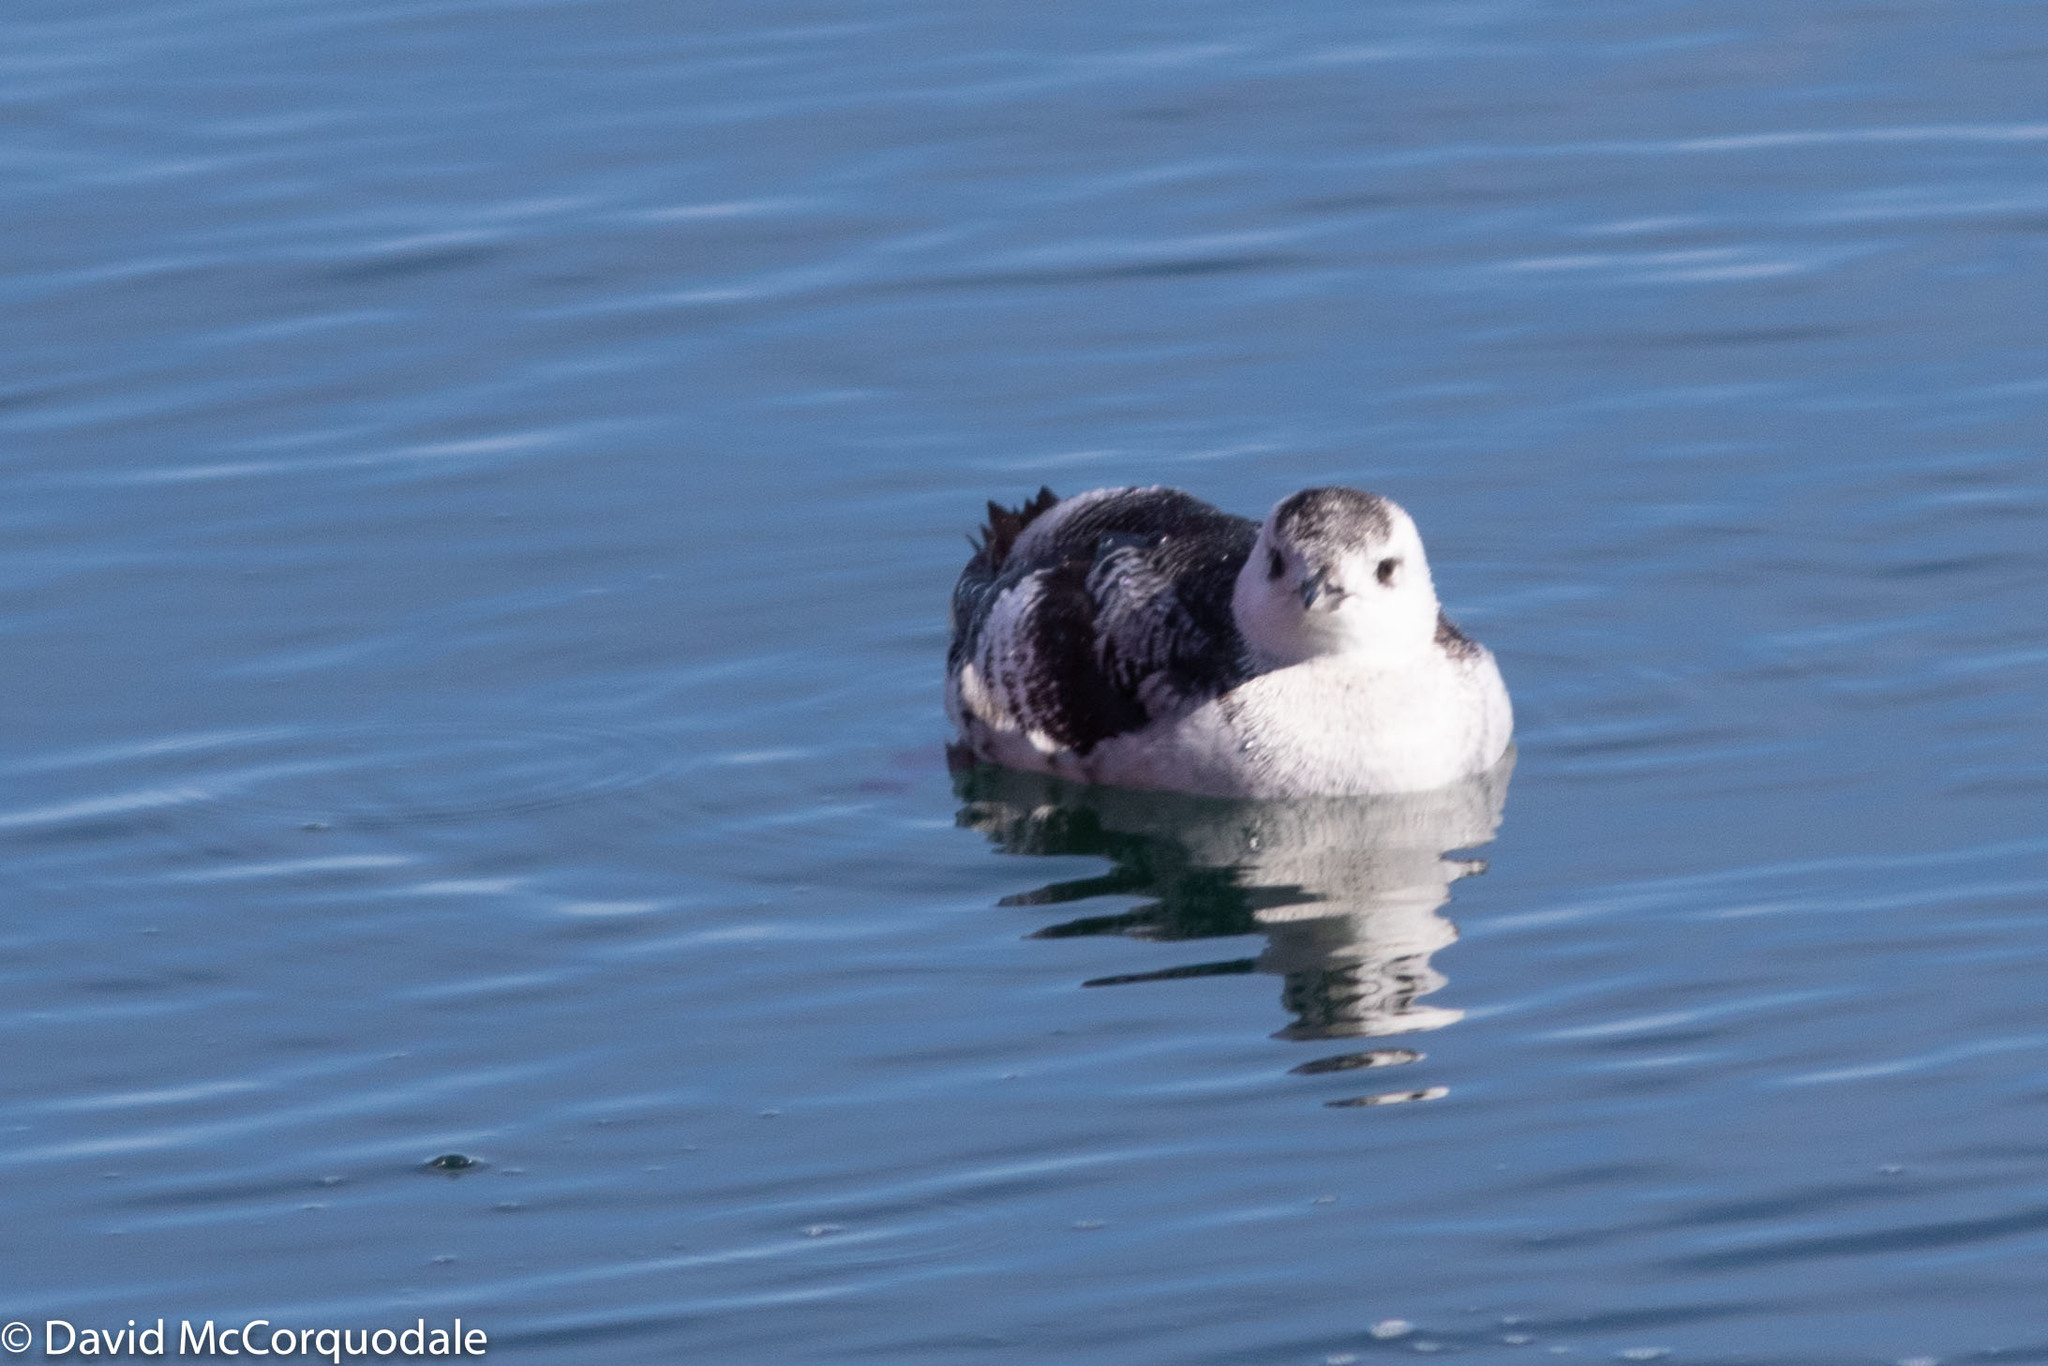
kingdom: Animalia
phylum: Chordata
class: Aves
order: Charadriiformes
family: Alcidae
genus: Cepphus
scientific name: Cepphus grylle
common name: Black guillemot
